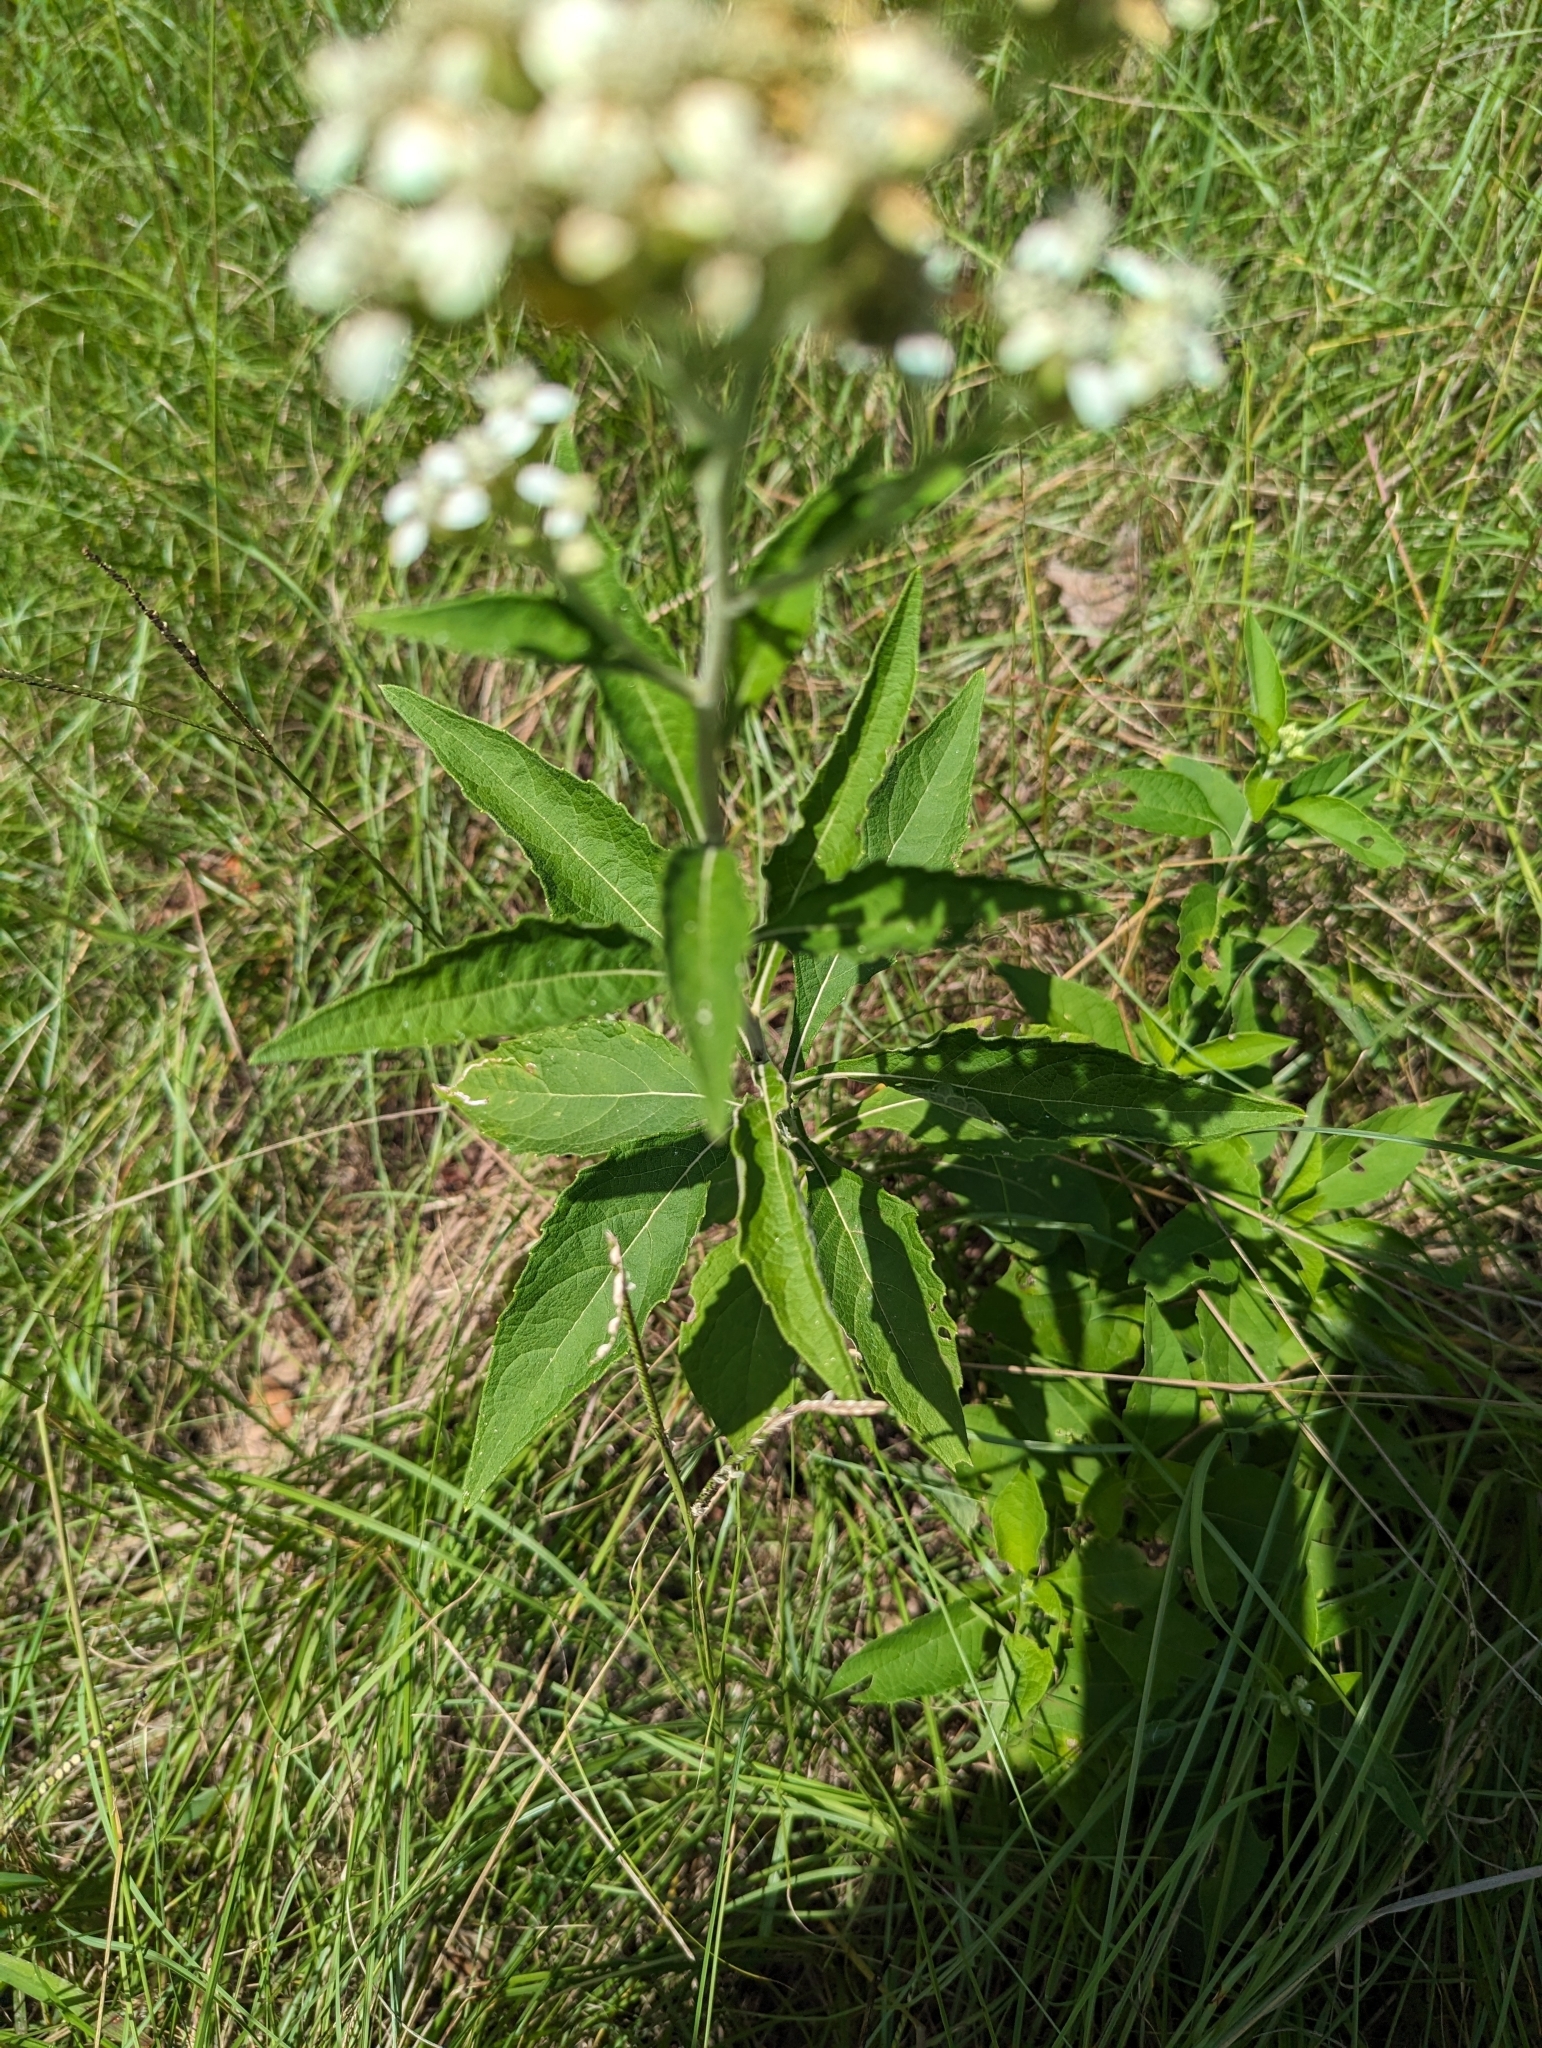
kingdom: Plantae
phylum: Tracheophyta
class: Magnoliopsida
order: Asterales
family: Asteraceae
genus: Verbesina
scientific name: Verbesina virginica
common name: Frostweed
